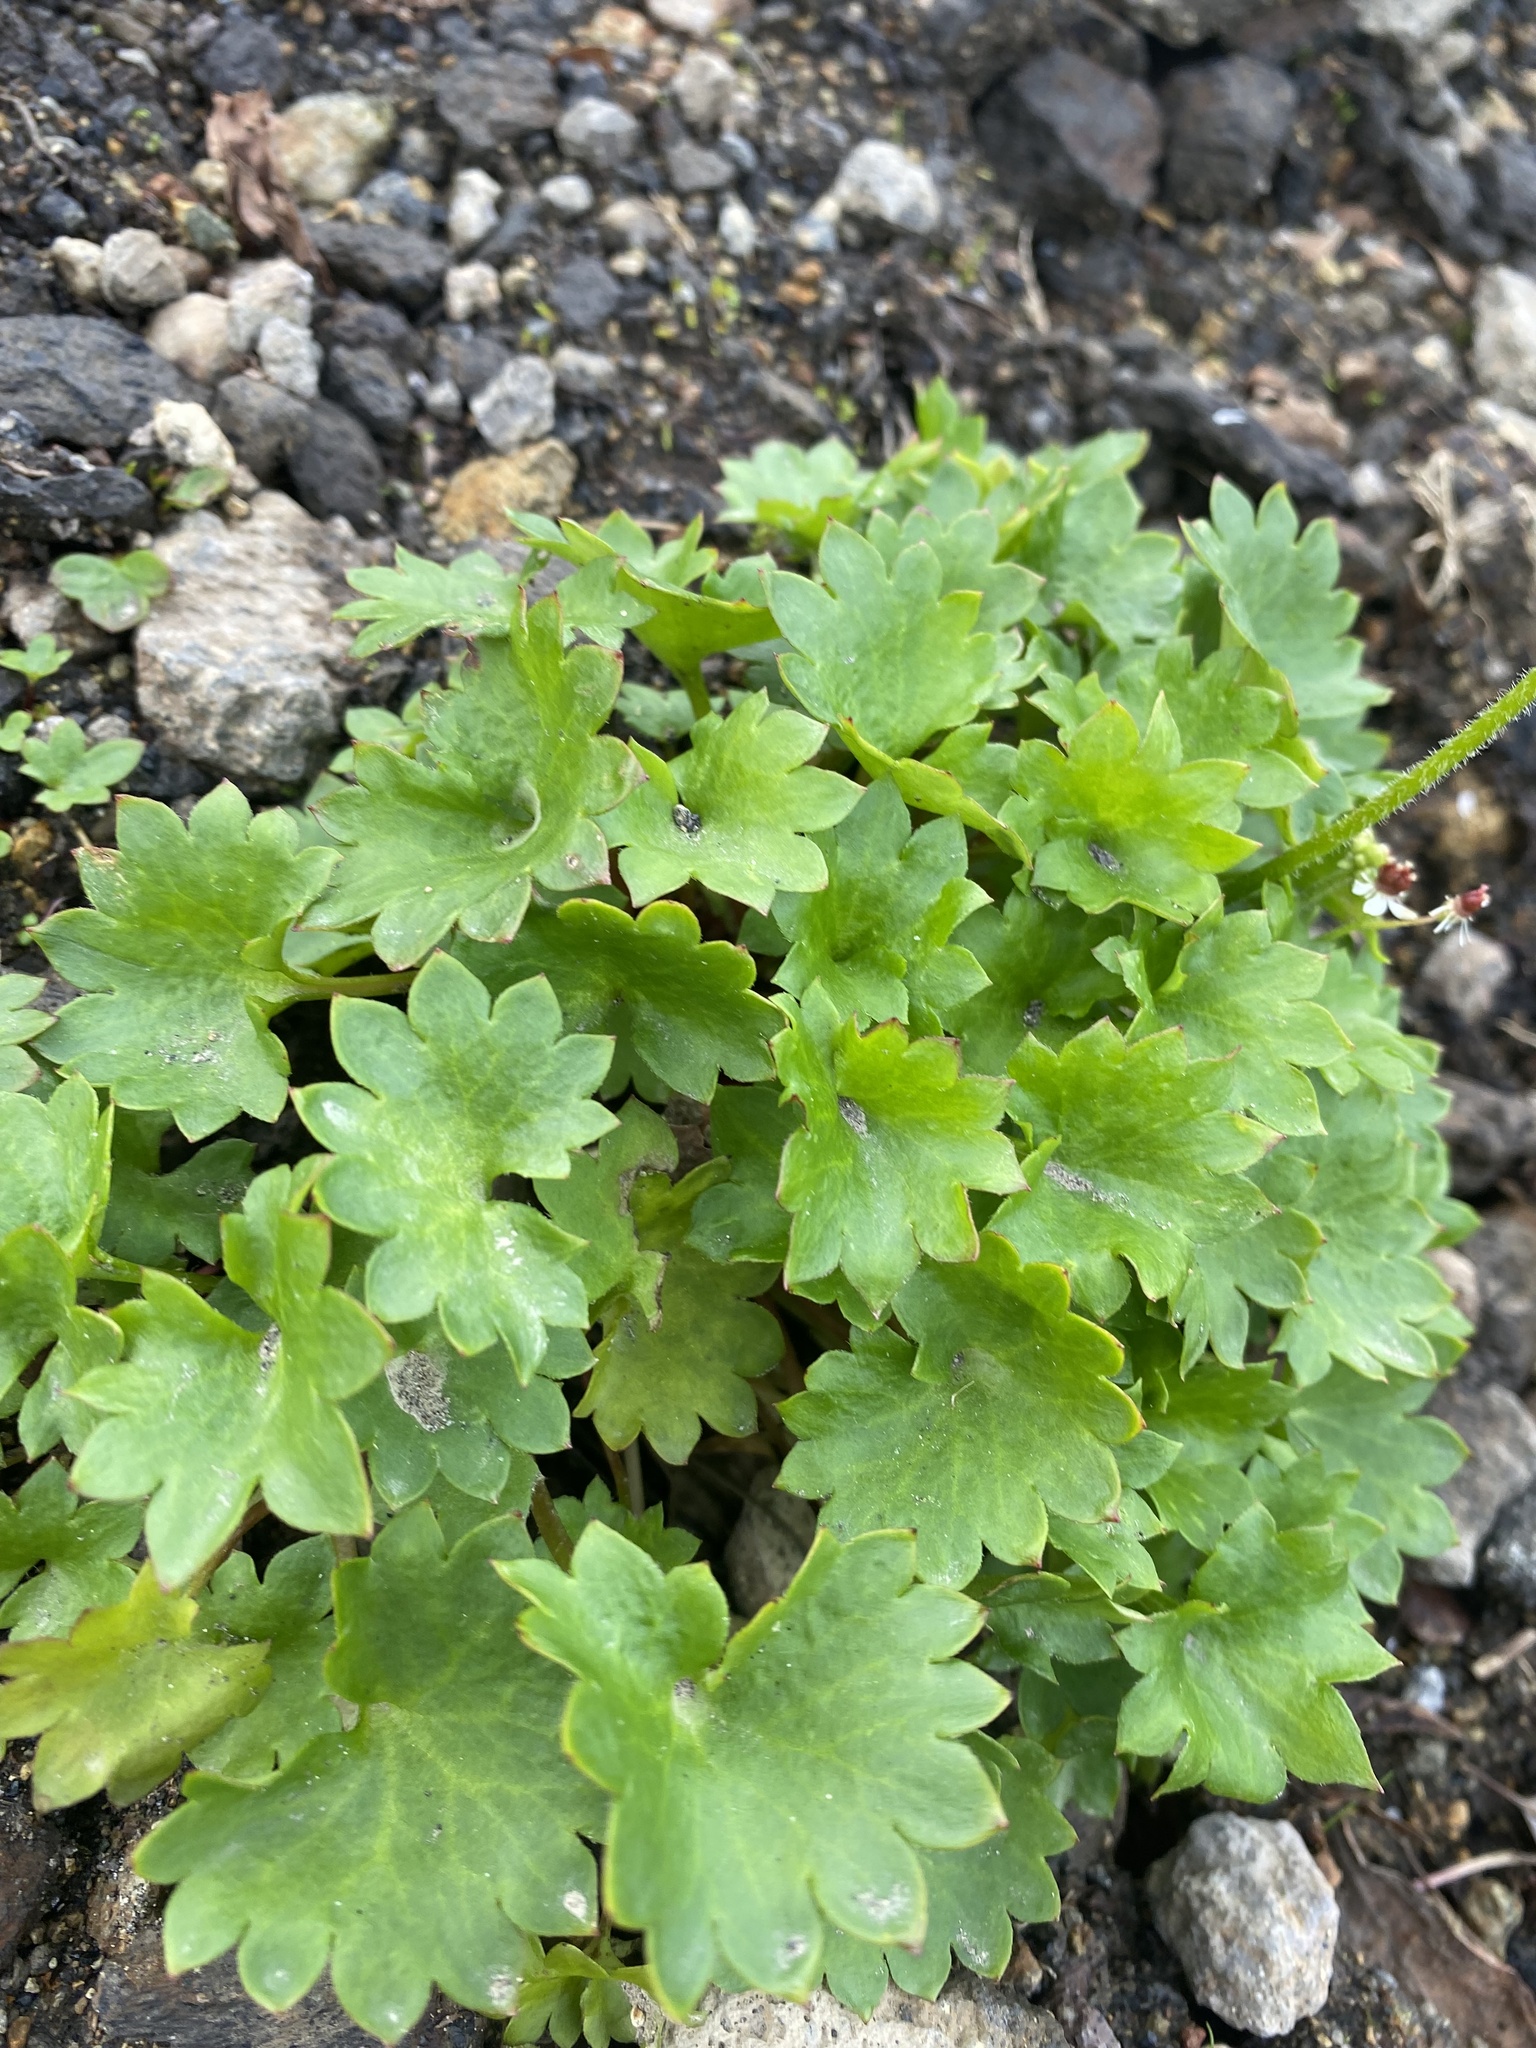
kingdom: Plantae
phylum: Tracheophyta
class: Magnoliopsida
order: Saxifragales
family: Saxifragaceae
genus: Micranthes
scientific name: Micranthes nelsoniana
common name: Nelson's saxifrage
